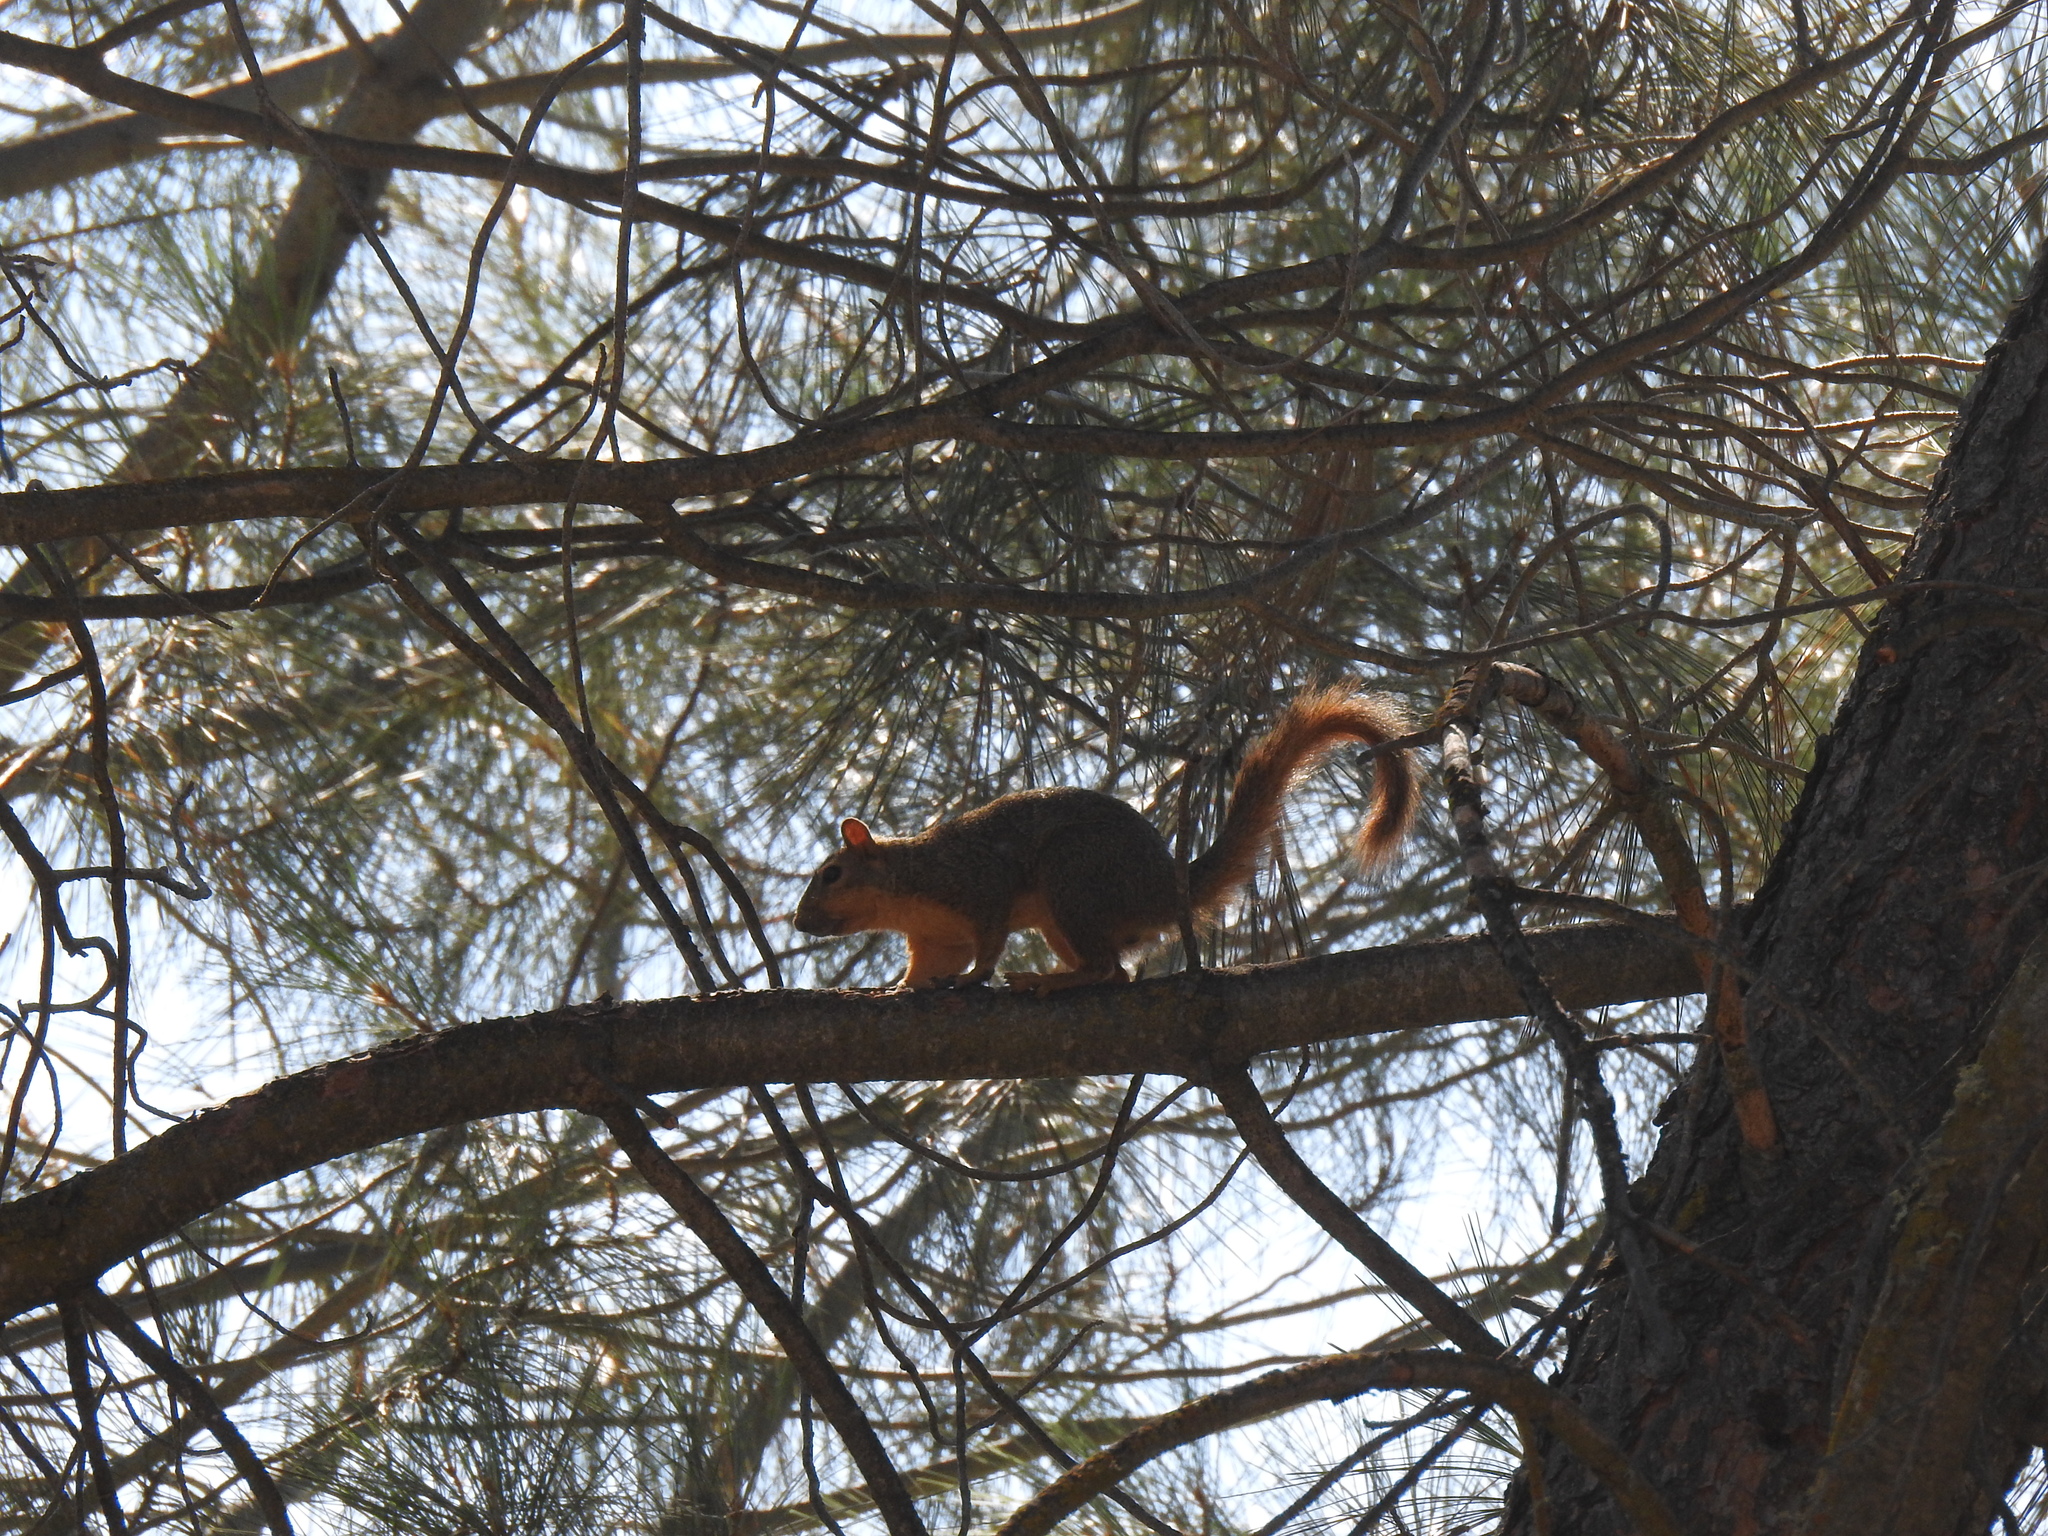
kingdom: Animalia
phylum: Chordata
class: Mammalia
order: Rodentia
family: Sciuridae
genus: Sciurus
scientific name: Sciurus niger
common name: Fox squirrel
